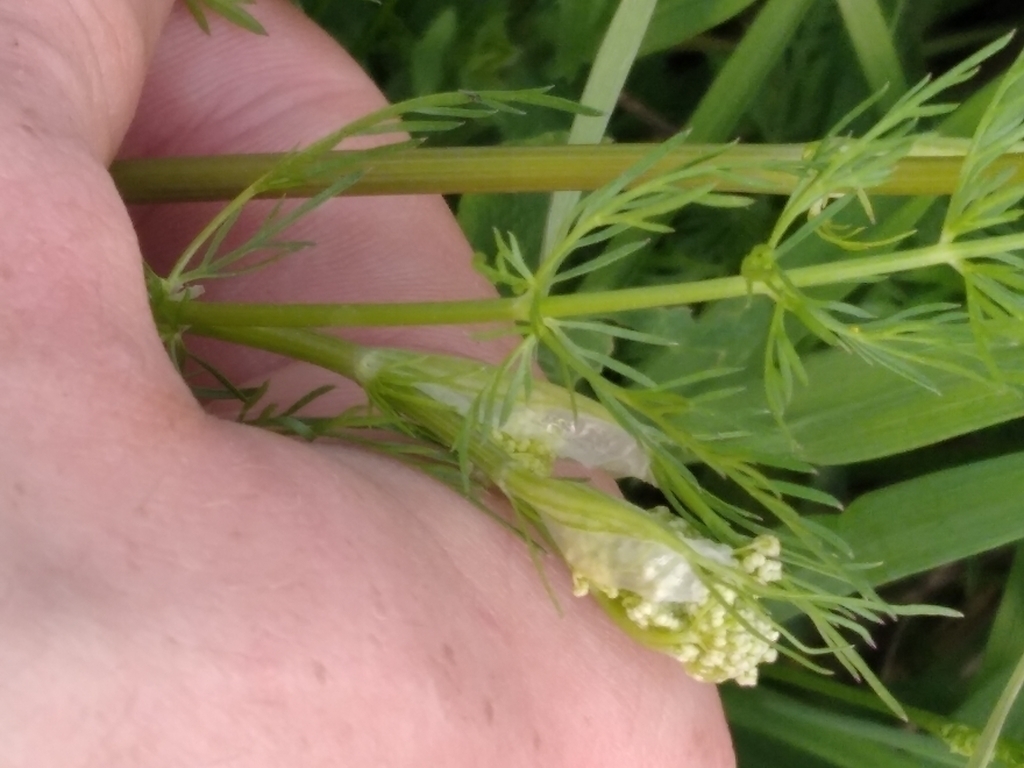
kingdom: Plantae
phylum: Tracheophyta
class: Magnoliopsida
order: Apiales
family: Apiaceae
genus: Carum
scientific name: Carum carvi
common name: Caraway
